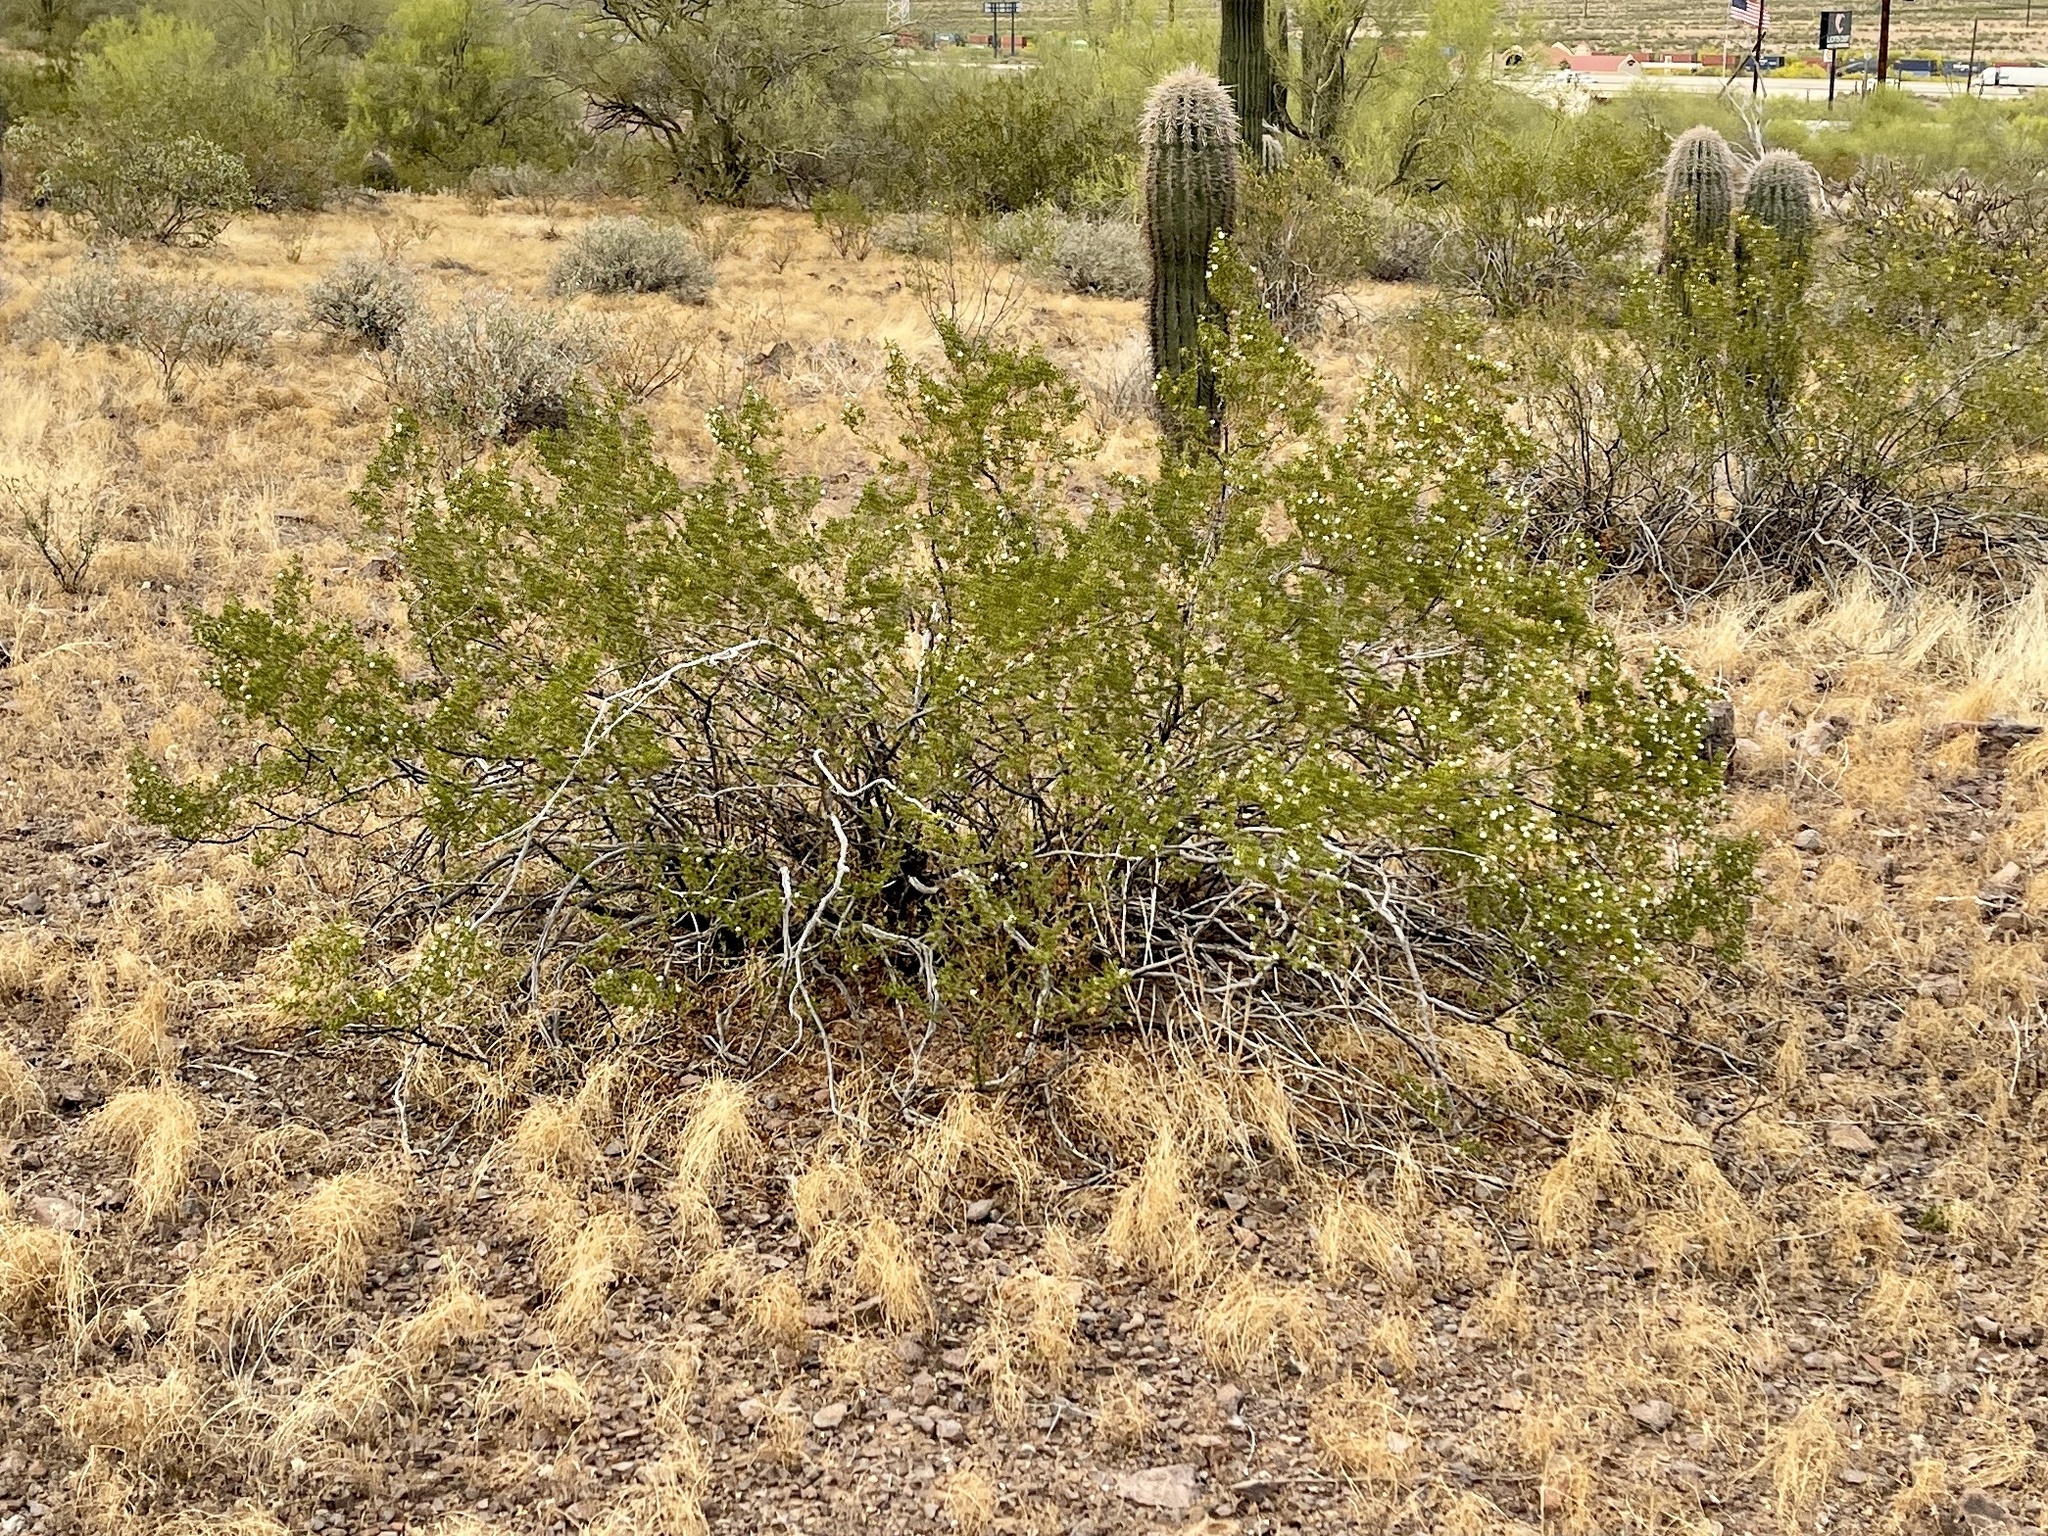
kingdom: Plantae
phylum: Tracheophyta
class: Magnoliopsida
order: Zygophyllales
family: Zygophyllaceae
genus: Larrea
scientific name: Larrea tridentata
